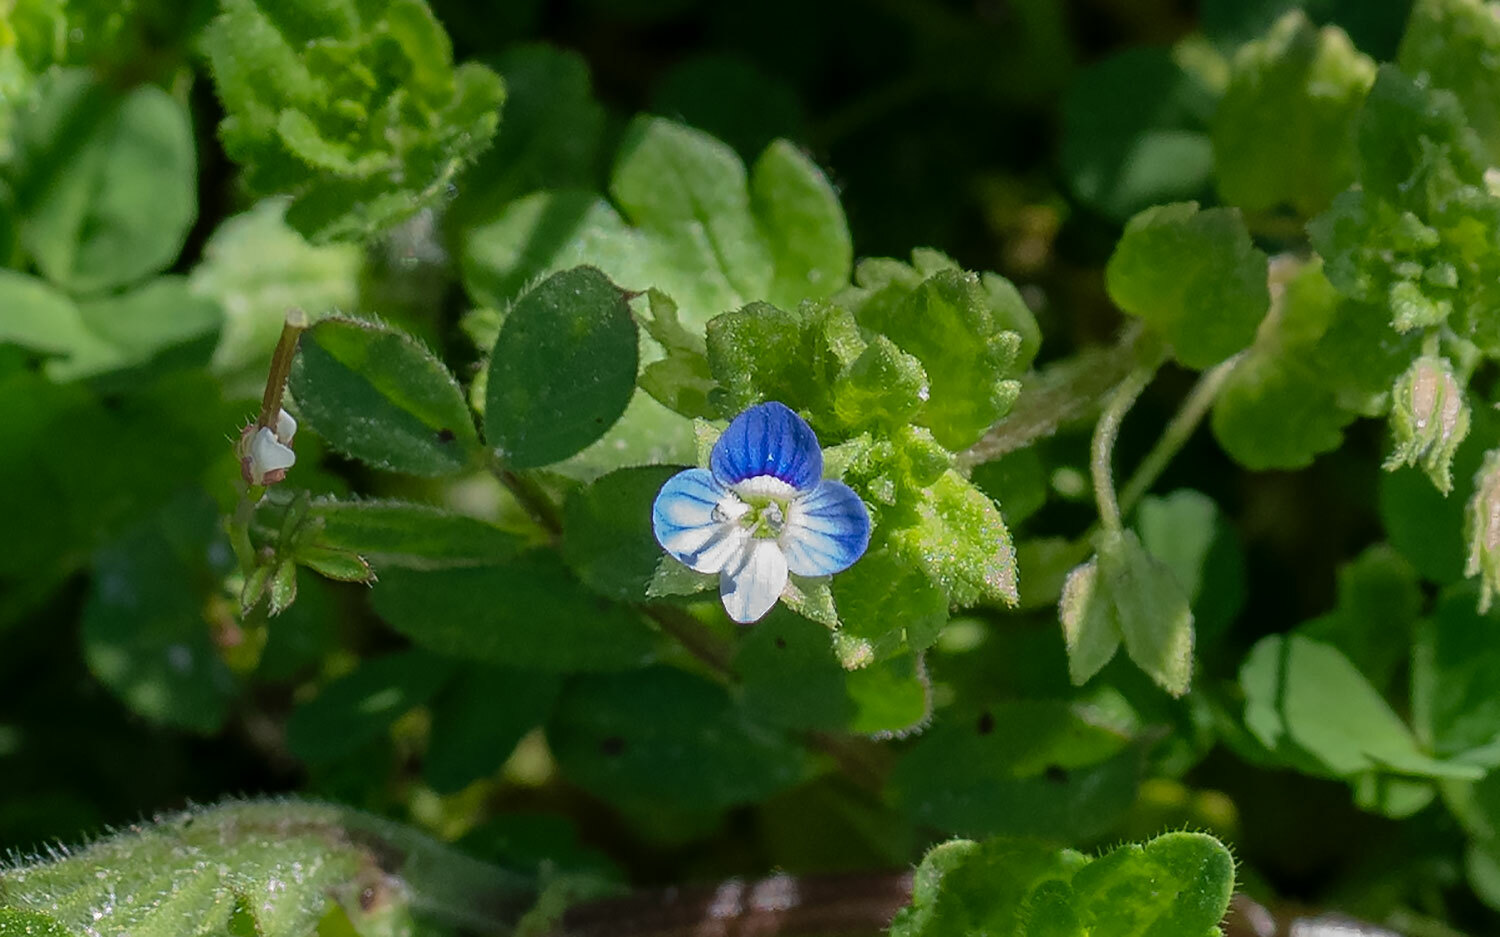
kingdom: Plantae
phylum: Tracheophyta
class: Magnoliopsida
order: Lamiales
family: Plantaginaceae
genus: Veronica
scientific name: Veronica persica
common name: Common field-speedwell
